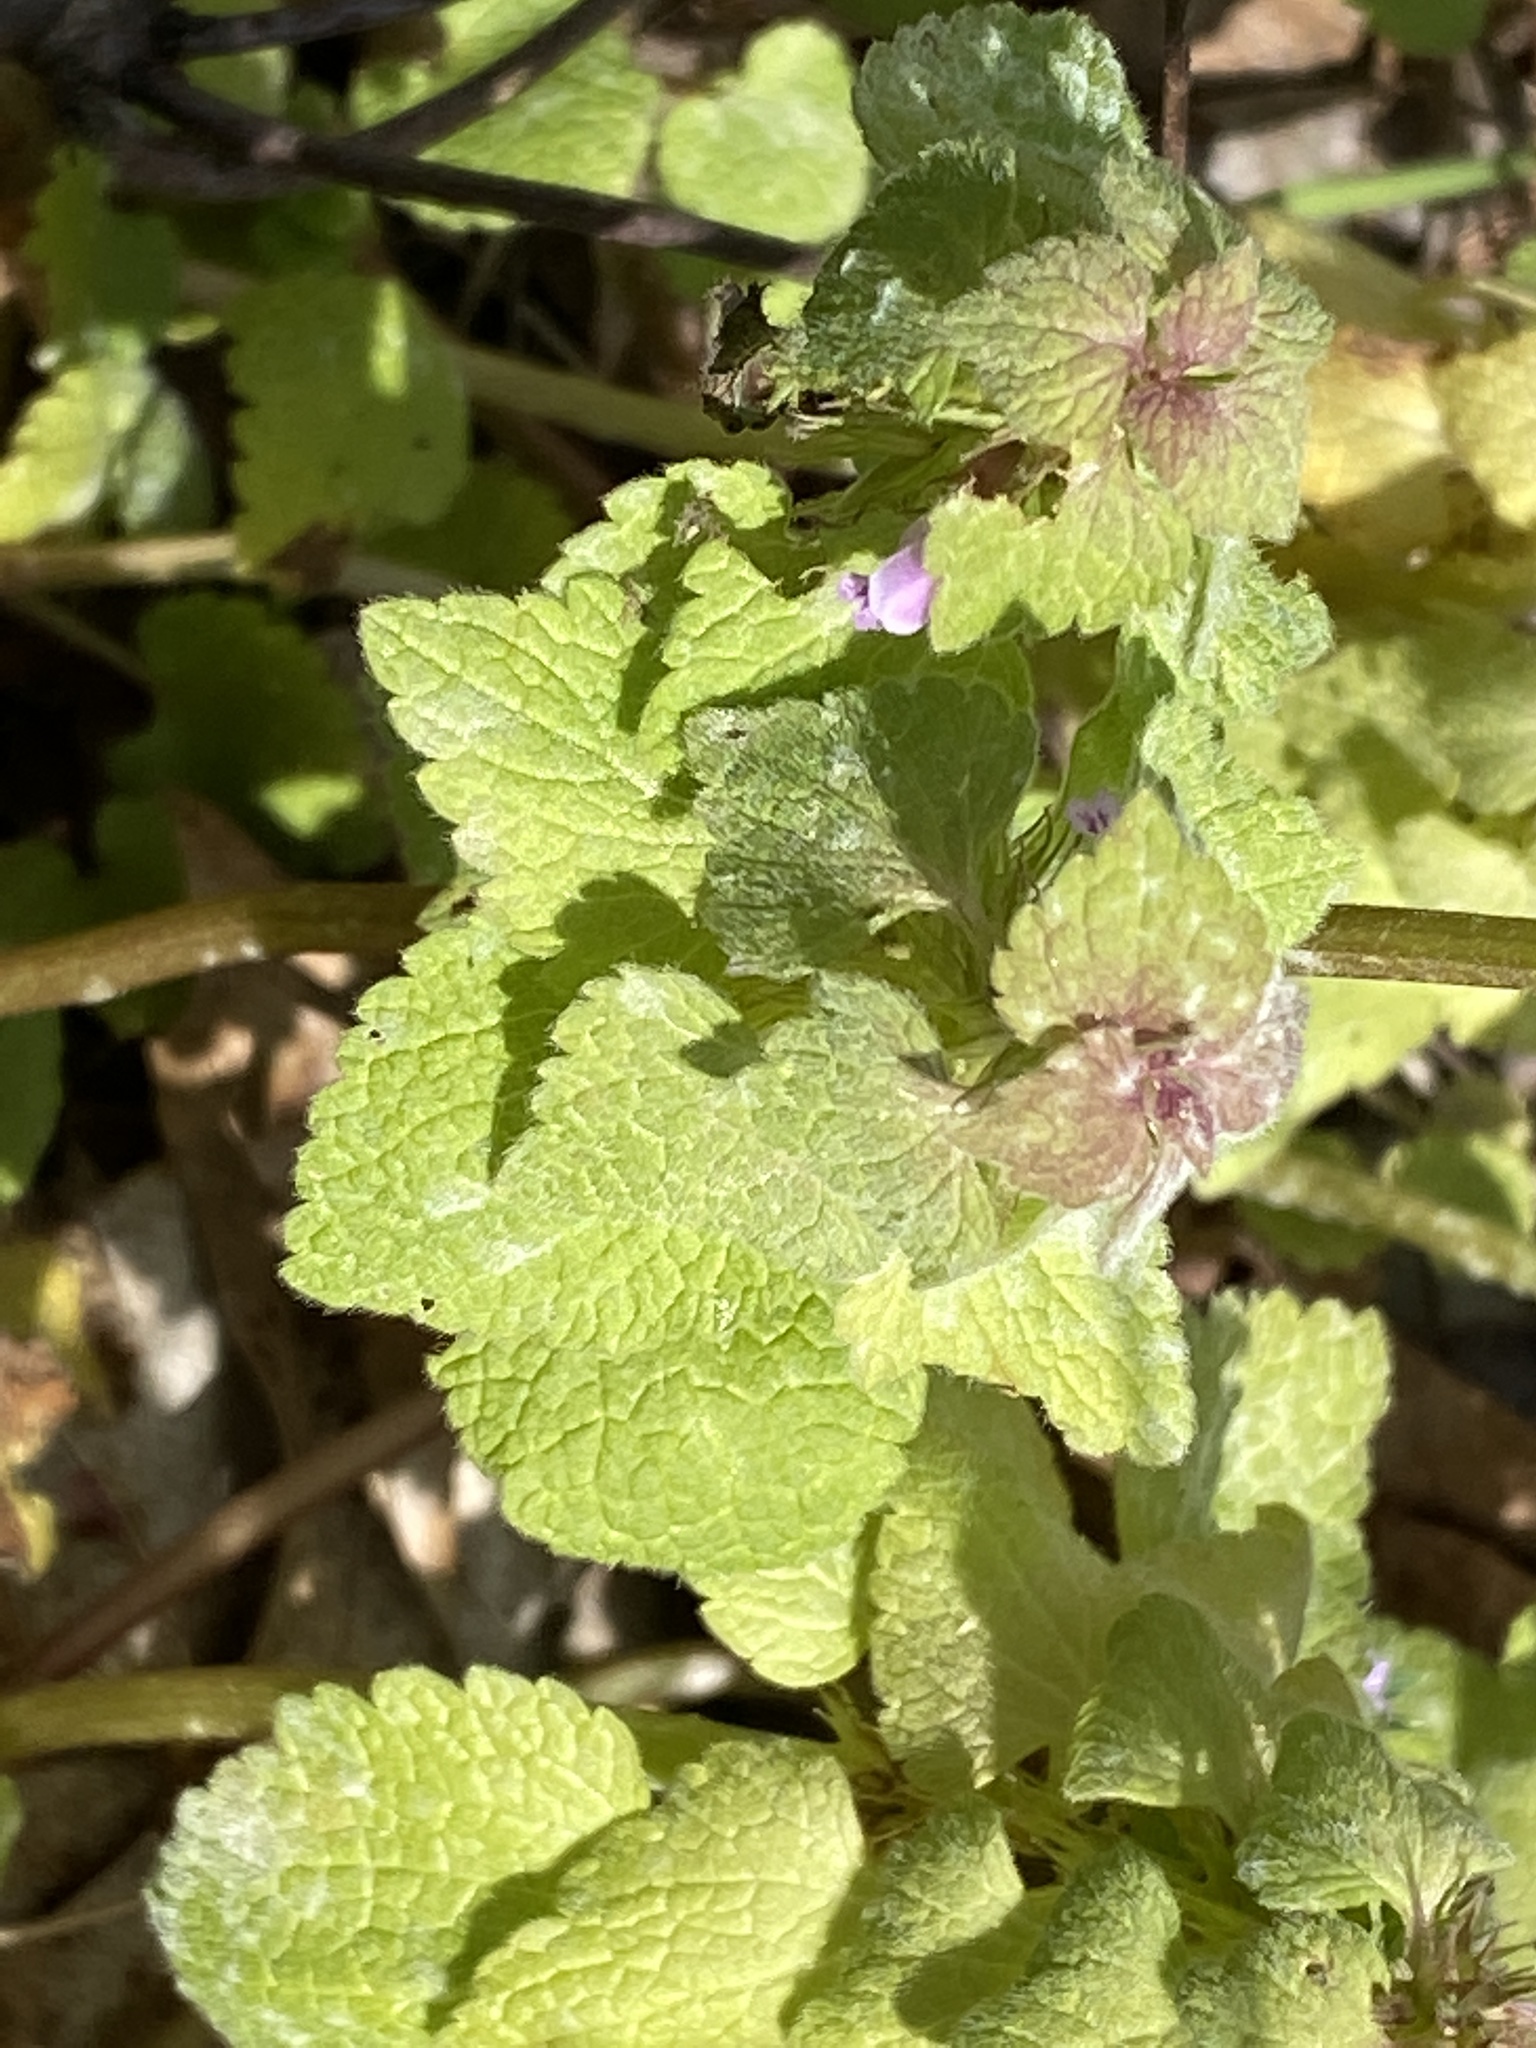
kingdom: Plantae
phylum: Tracheophyta
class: Magnoliopsida
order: Lamiales
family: Lamiaceae
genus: Lamium
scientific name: Lamium purpureum
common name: Red dead-nettle
